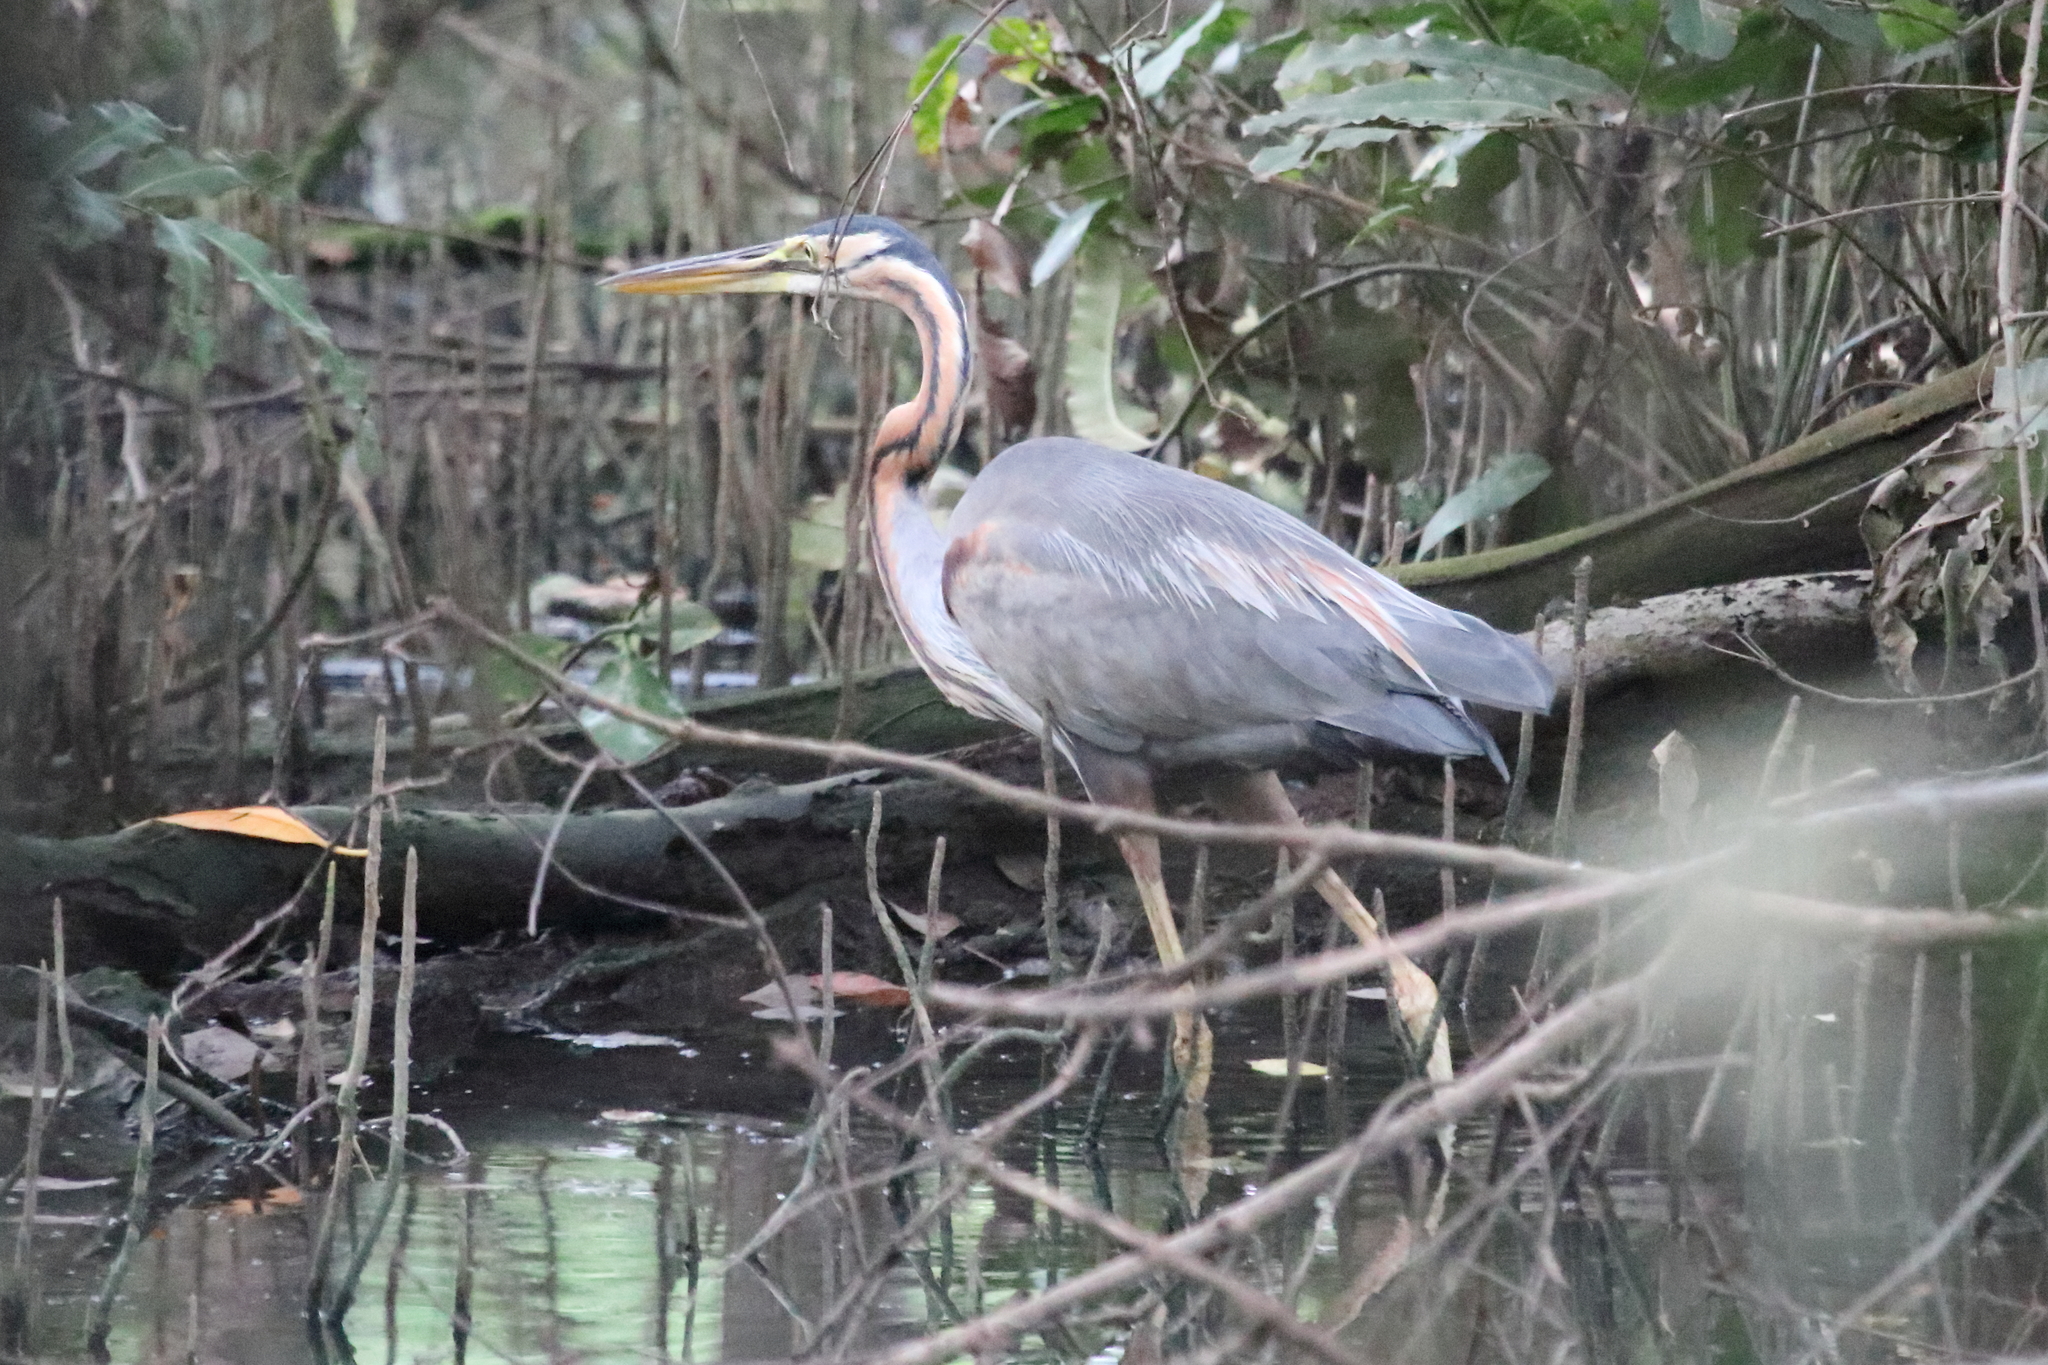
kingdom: Animalia
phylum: Chordata
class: Aves
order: Pelecaniformes
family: Ardeidae
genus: Ardea
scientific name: Ardea purpurea
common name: Purple heron
